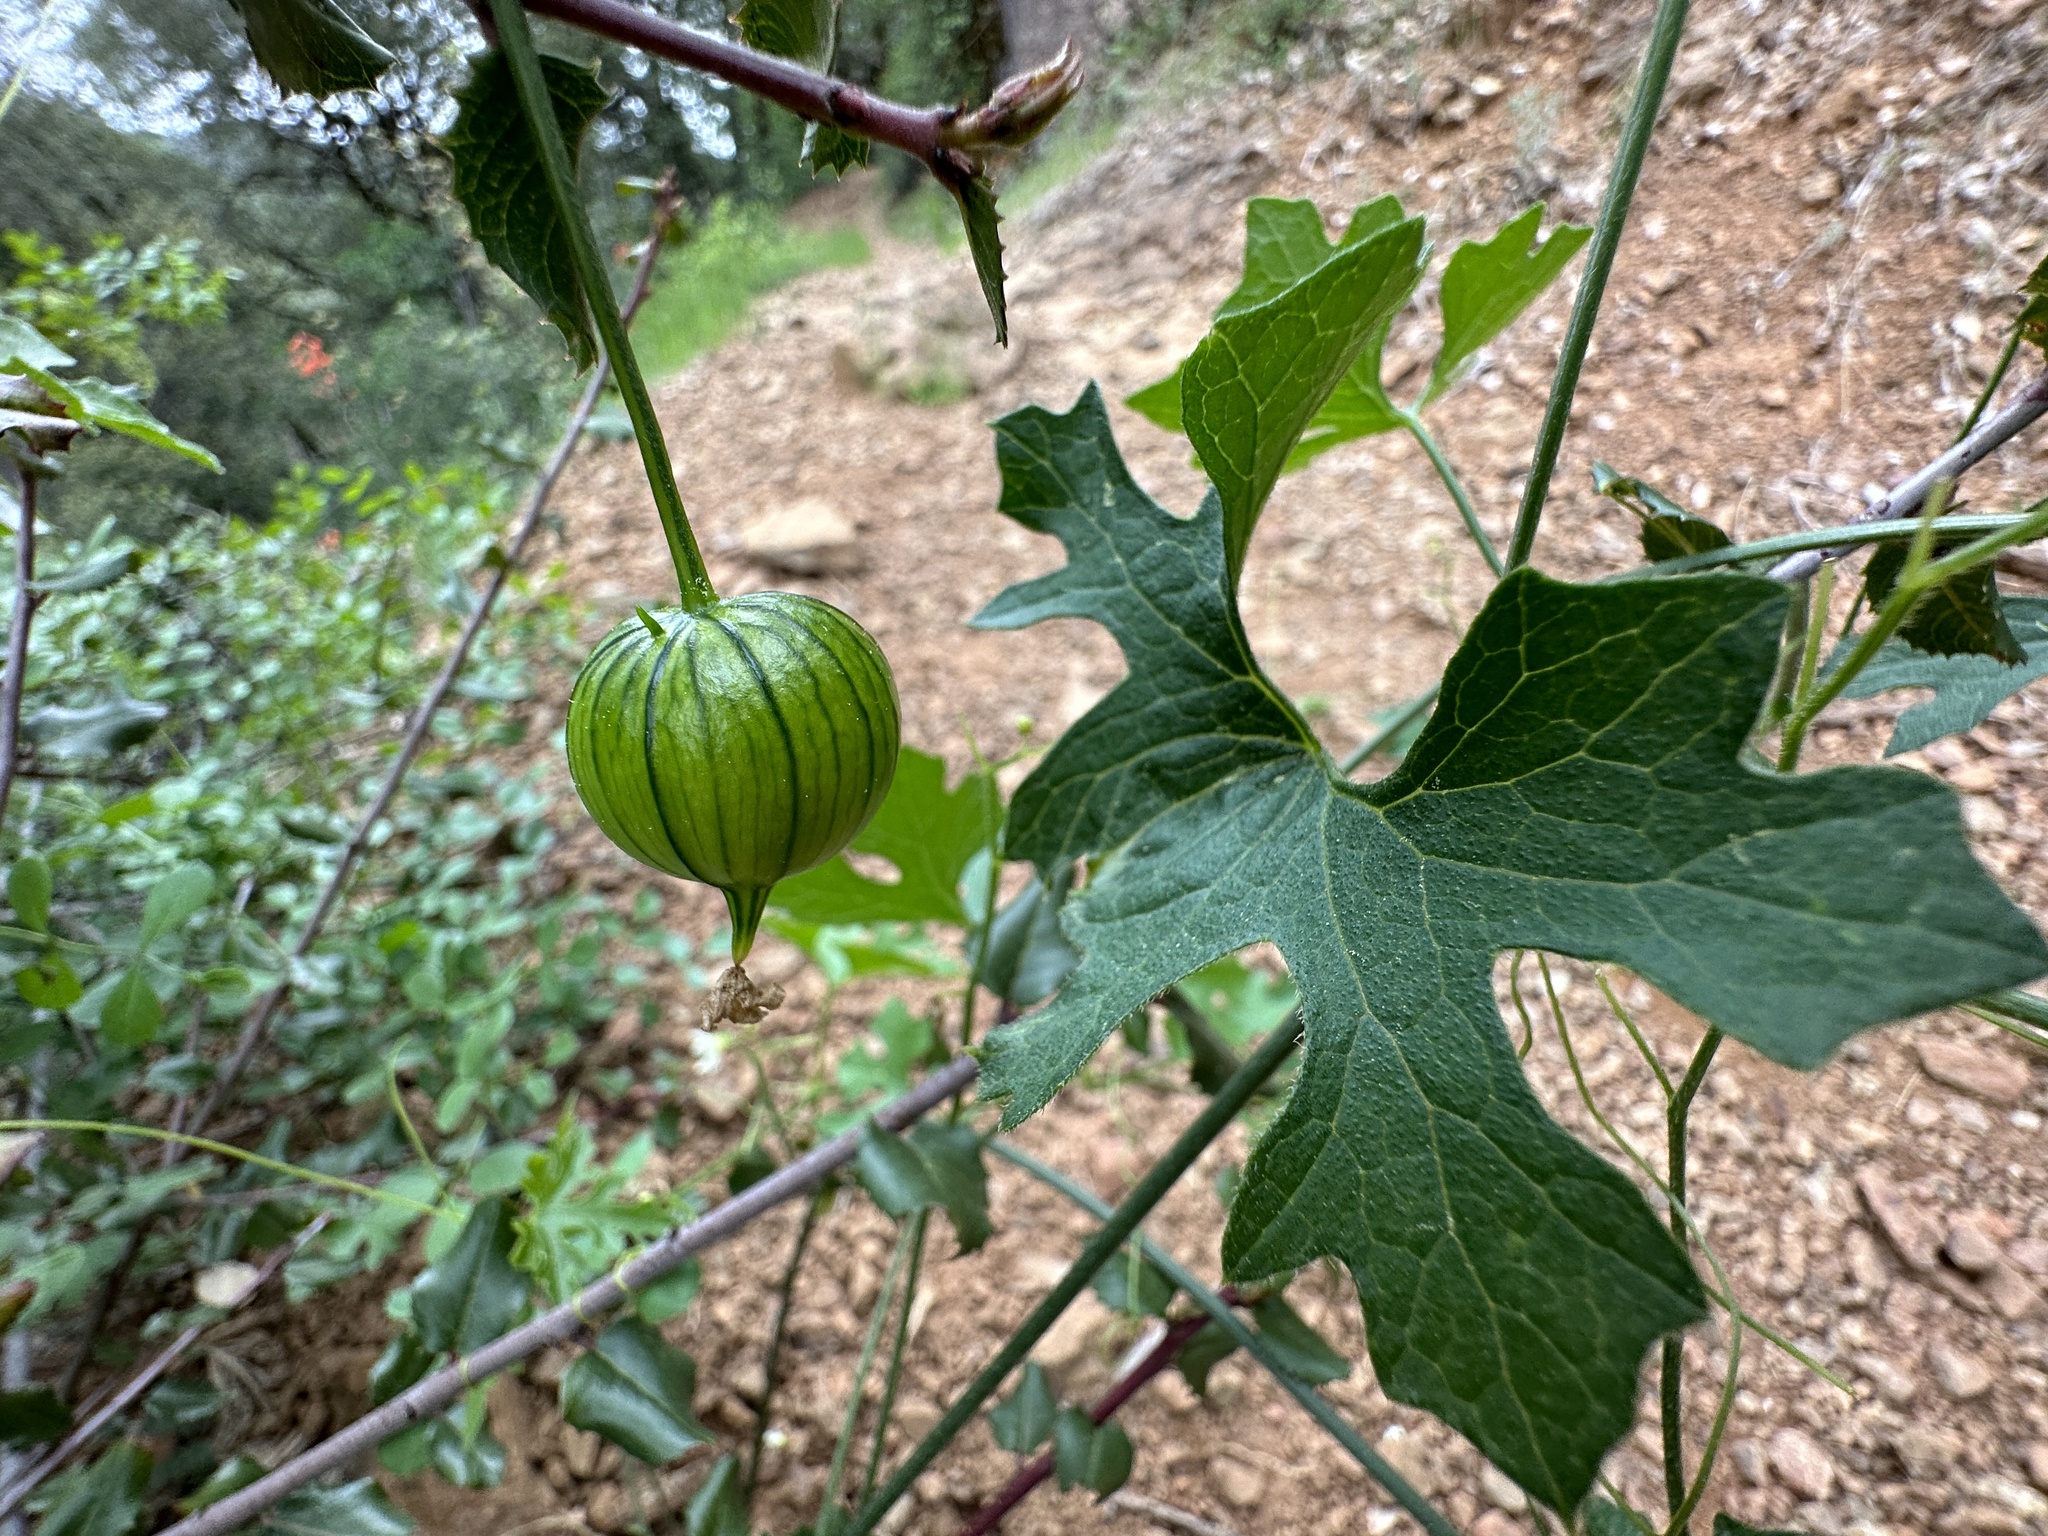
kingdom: Plantae
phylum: Tracheophyta
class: Magnoliopsida
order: Cucurbitales
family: Cucurbitaceae
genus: Marah
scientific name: Marah watsonii
